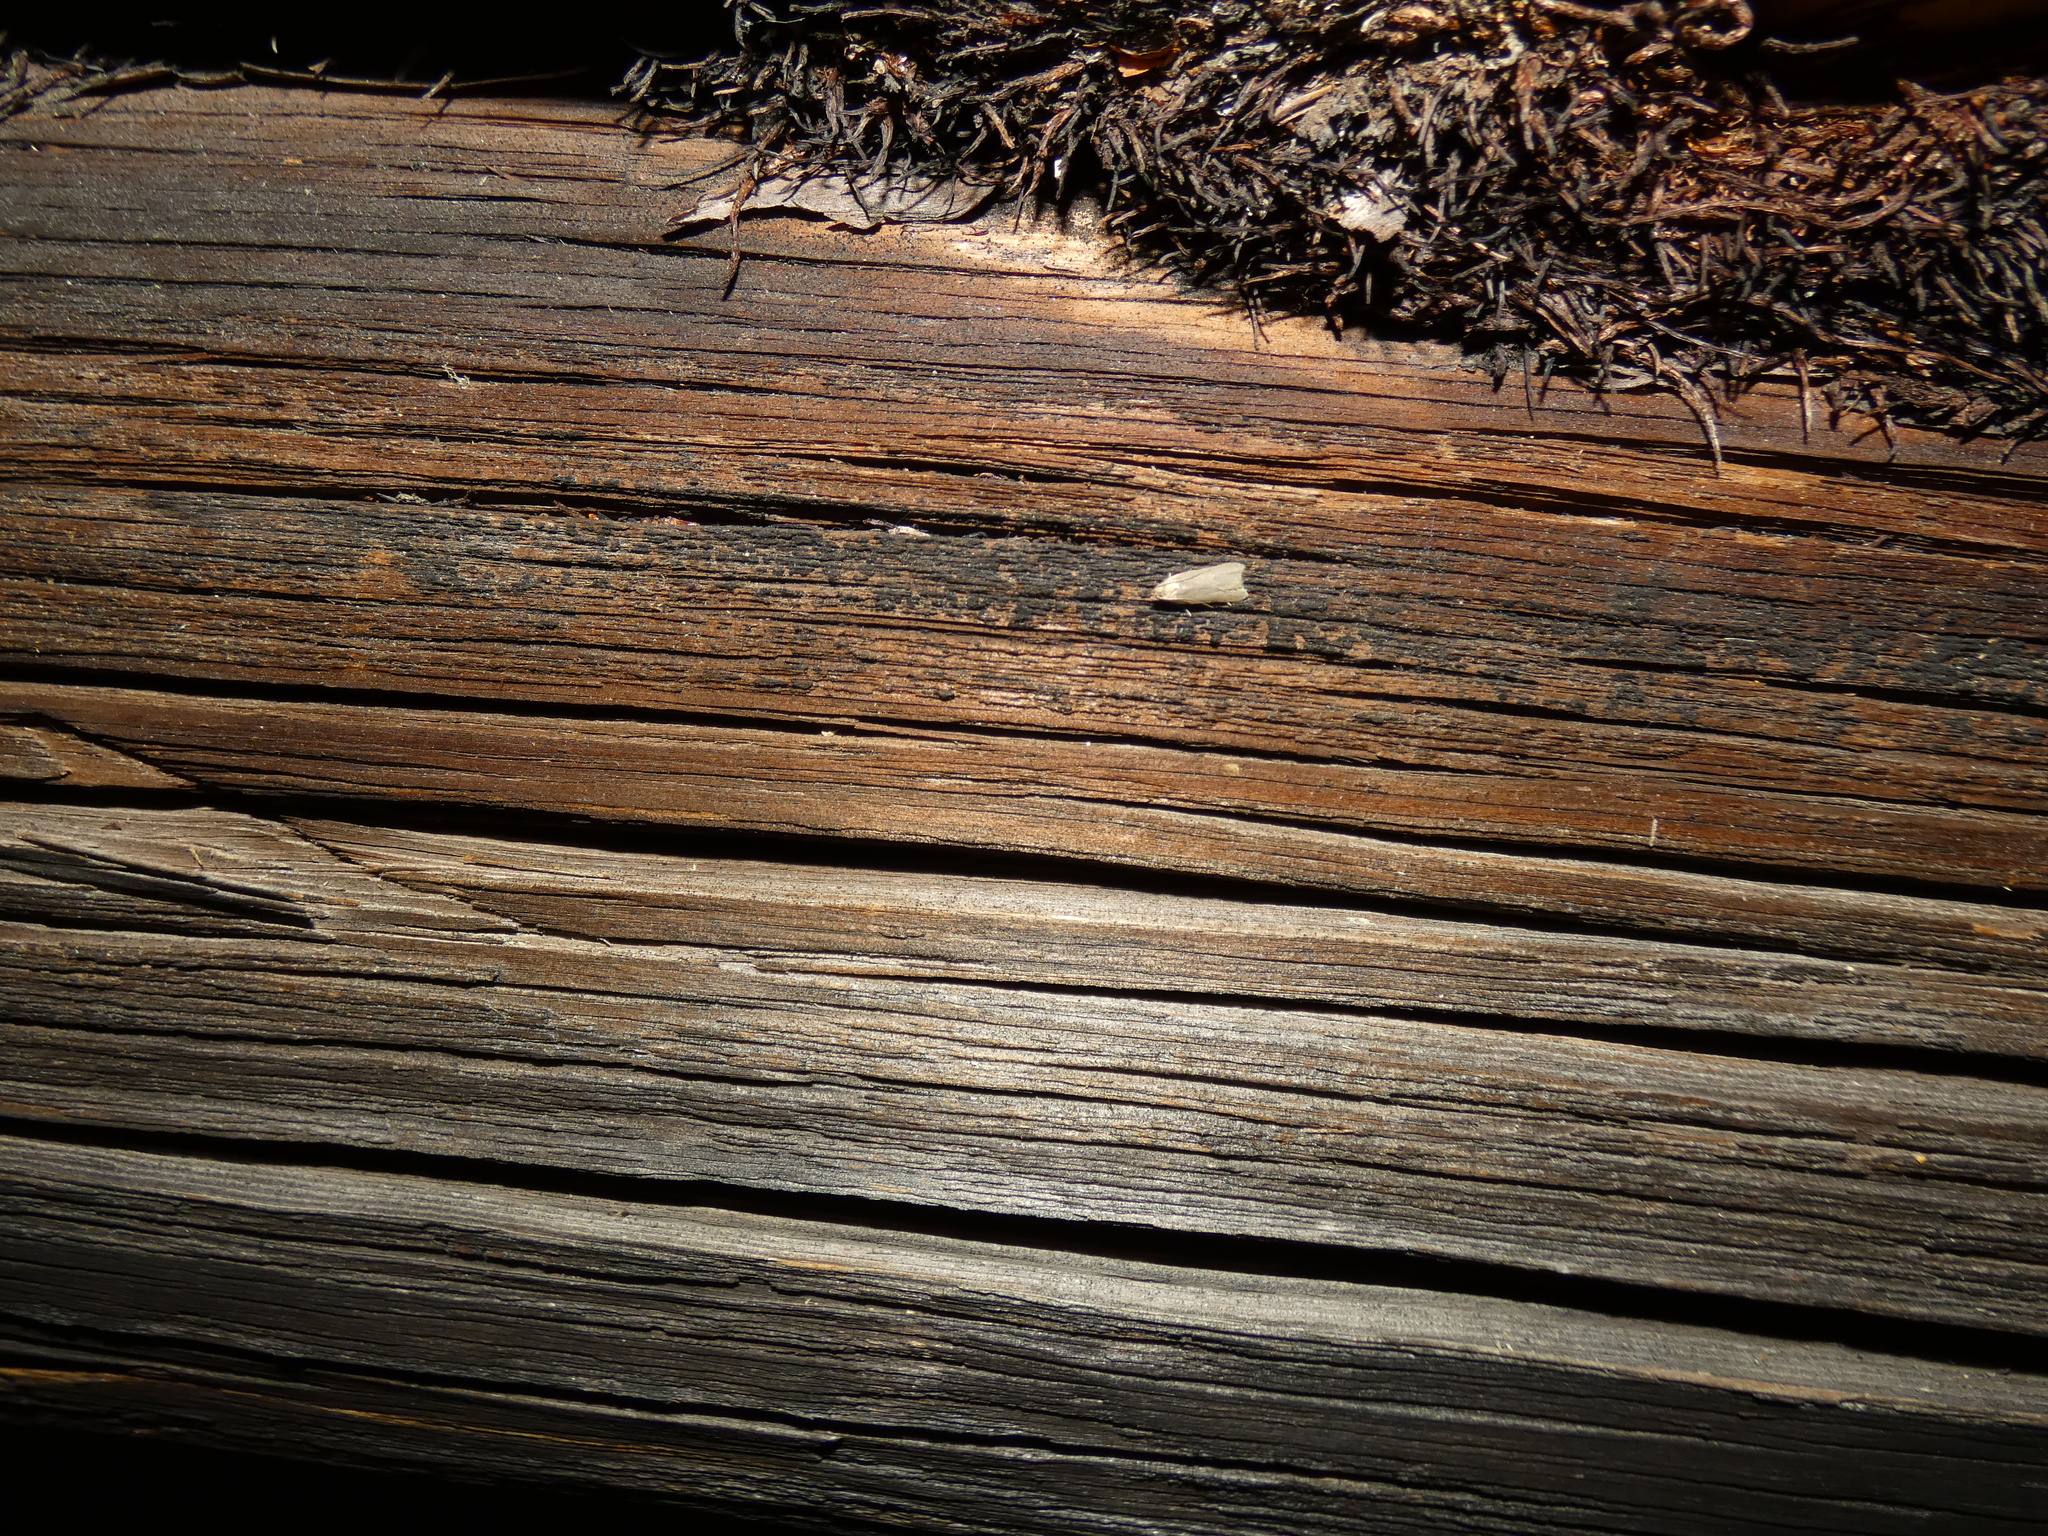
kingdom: Animalia
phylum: Arthropoda
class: Insecta
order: Lepidoptera
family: Gelechiidae
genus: Acompsia
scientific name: Acompsia cinerella
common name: Ash-coloured sober
